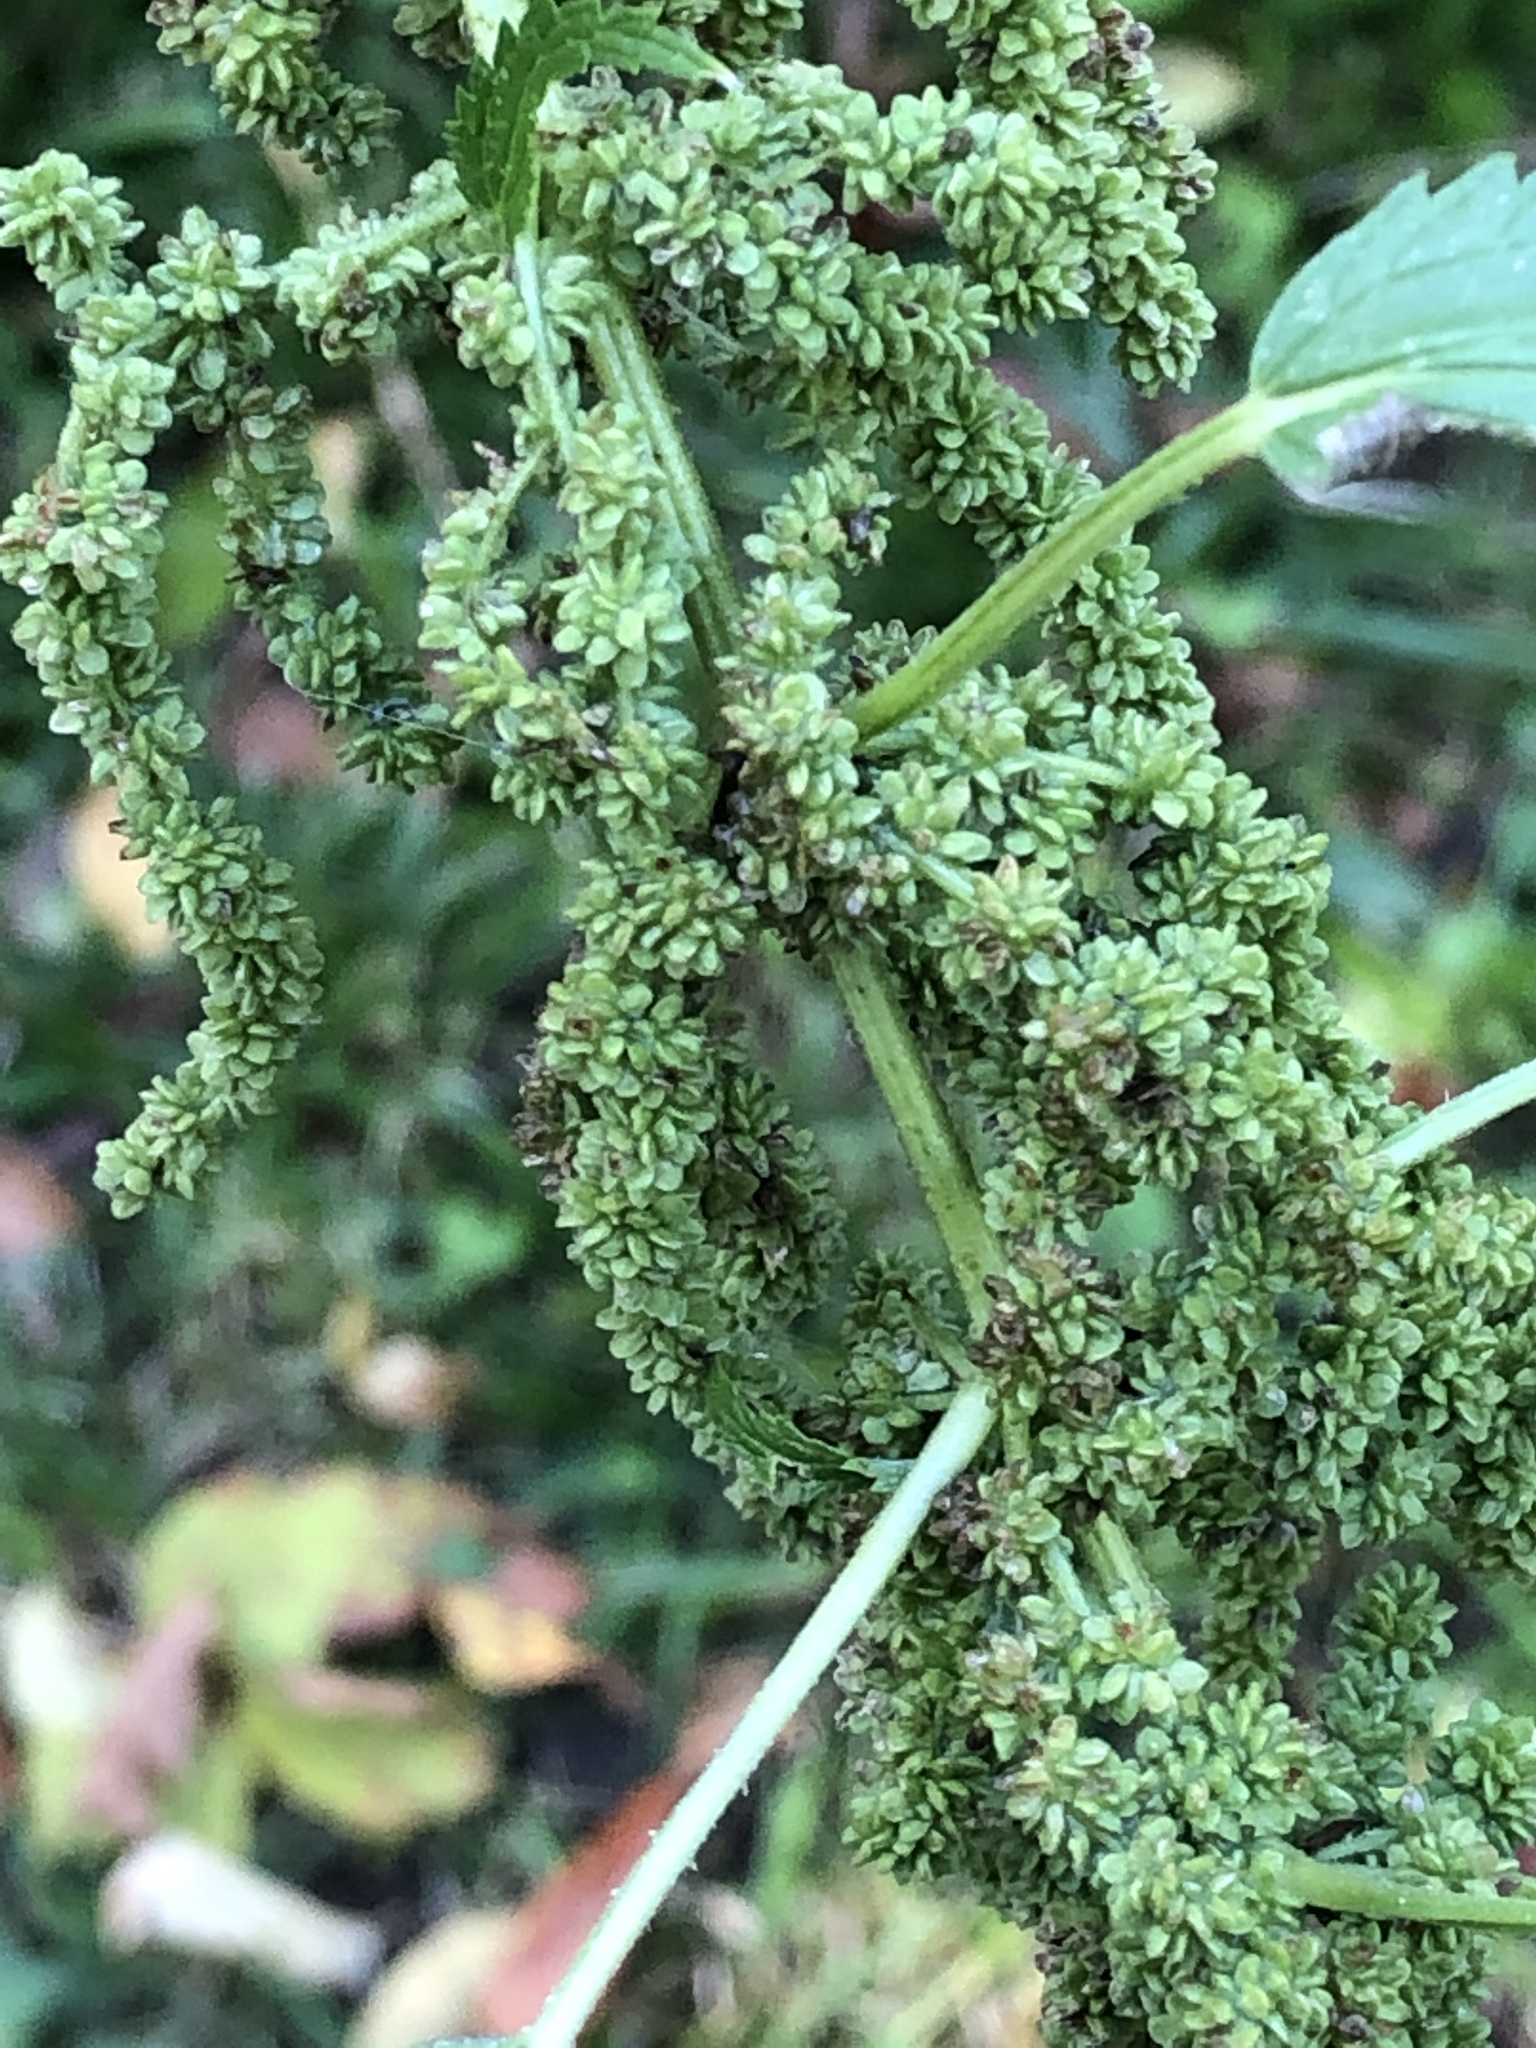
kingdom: Plantae
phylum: Tracheophyta
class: Magnoliopsida
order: Rosales
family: Urticaceae
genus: Urtica
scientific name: Urtica dioica
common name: Common nettle
